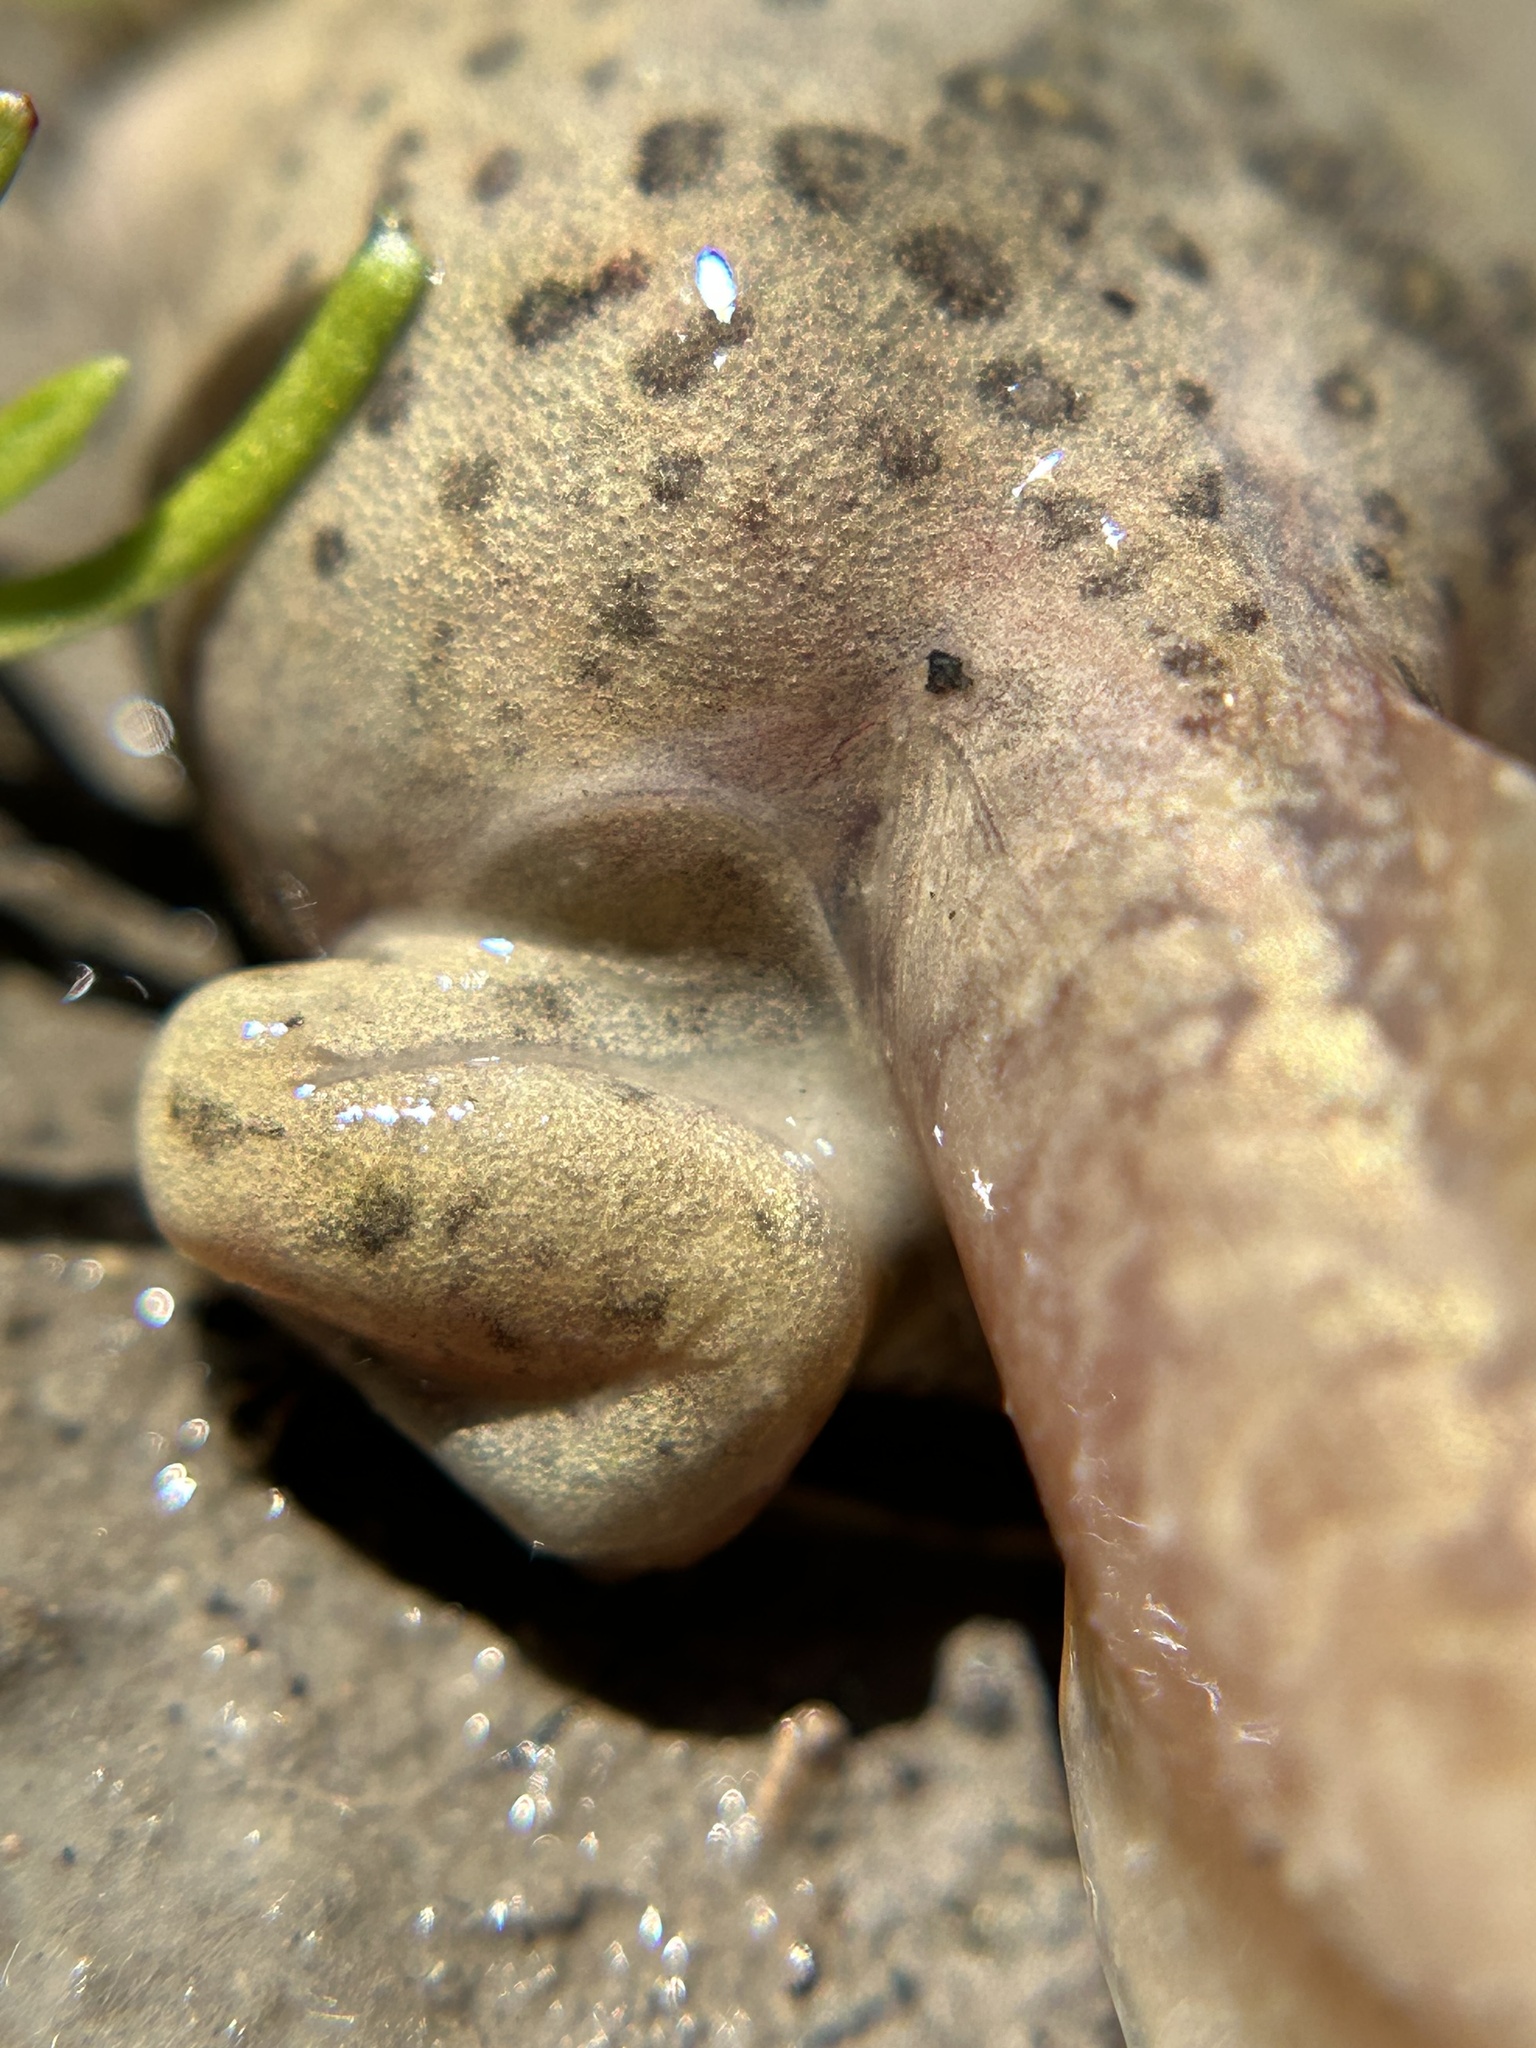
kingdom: Animalia
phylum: Chordata
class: Amphibia
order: Anura
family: Scaphiopodidae
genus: Spea
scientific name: Spea hammondii
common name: Western spadefoot toad
